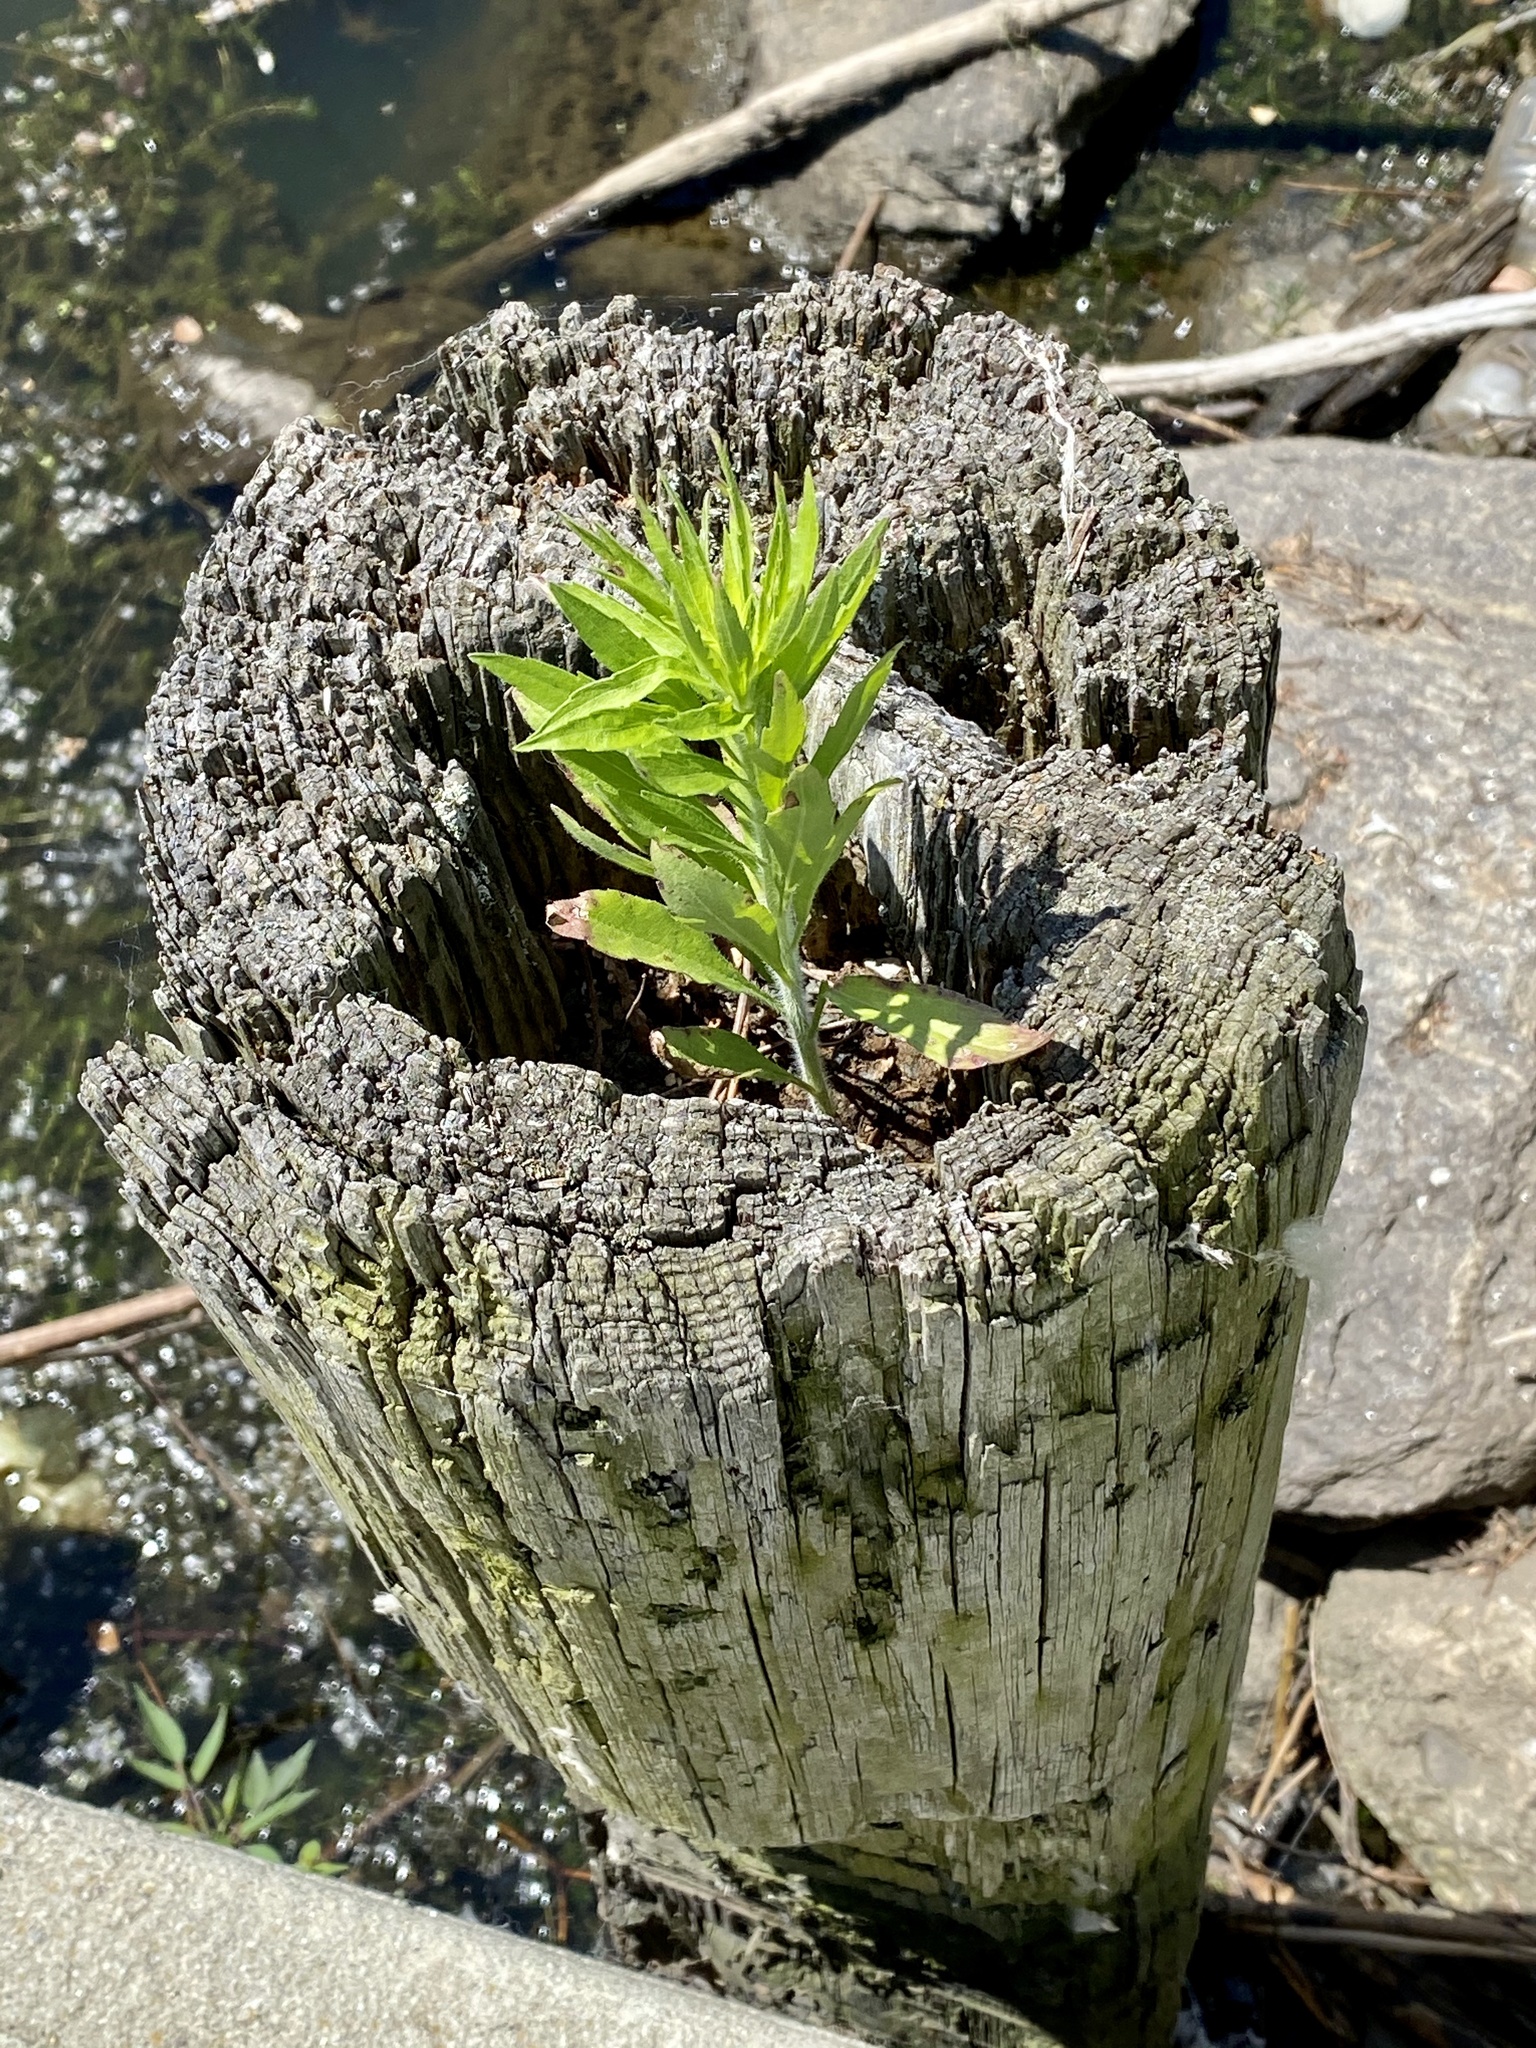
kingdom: Plantae
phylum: Tracheophyta
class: Magnoliopsida
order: Asterales
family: Asteraceae
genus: Erigeron
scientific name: Erigeron canadensis
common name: Canadian fleabane
